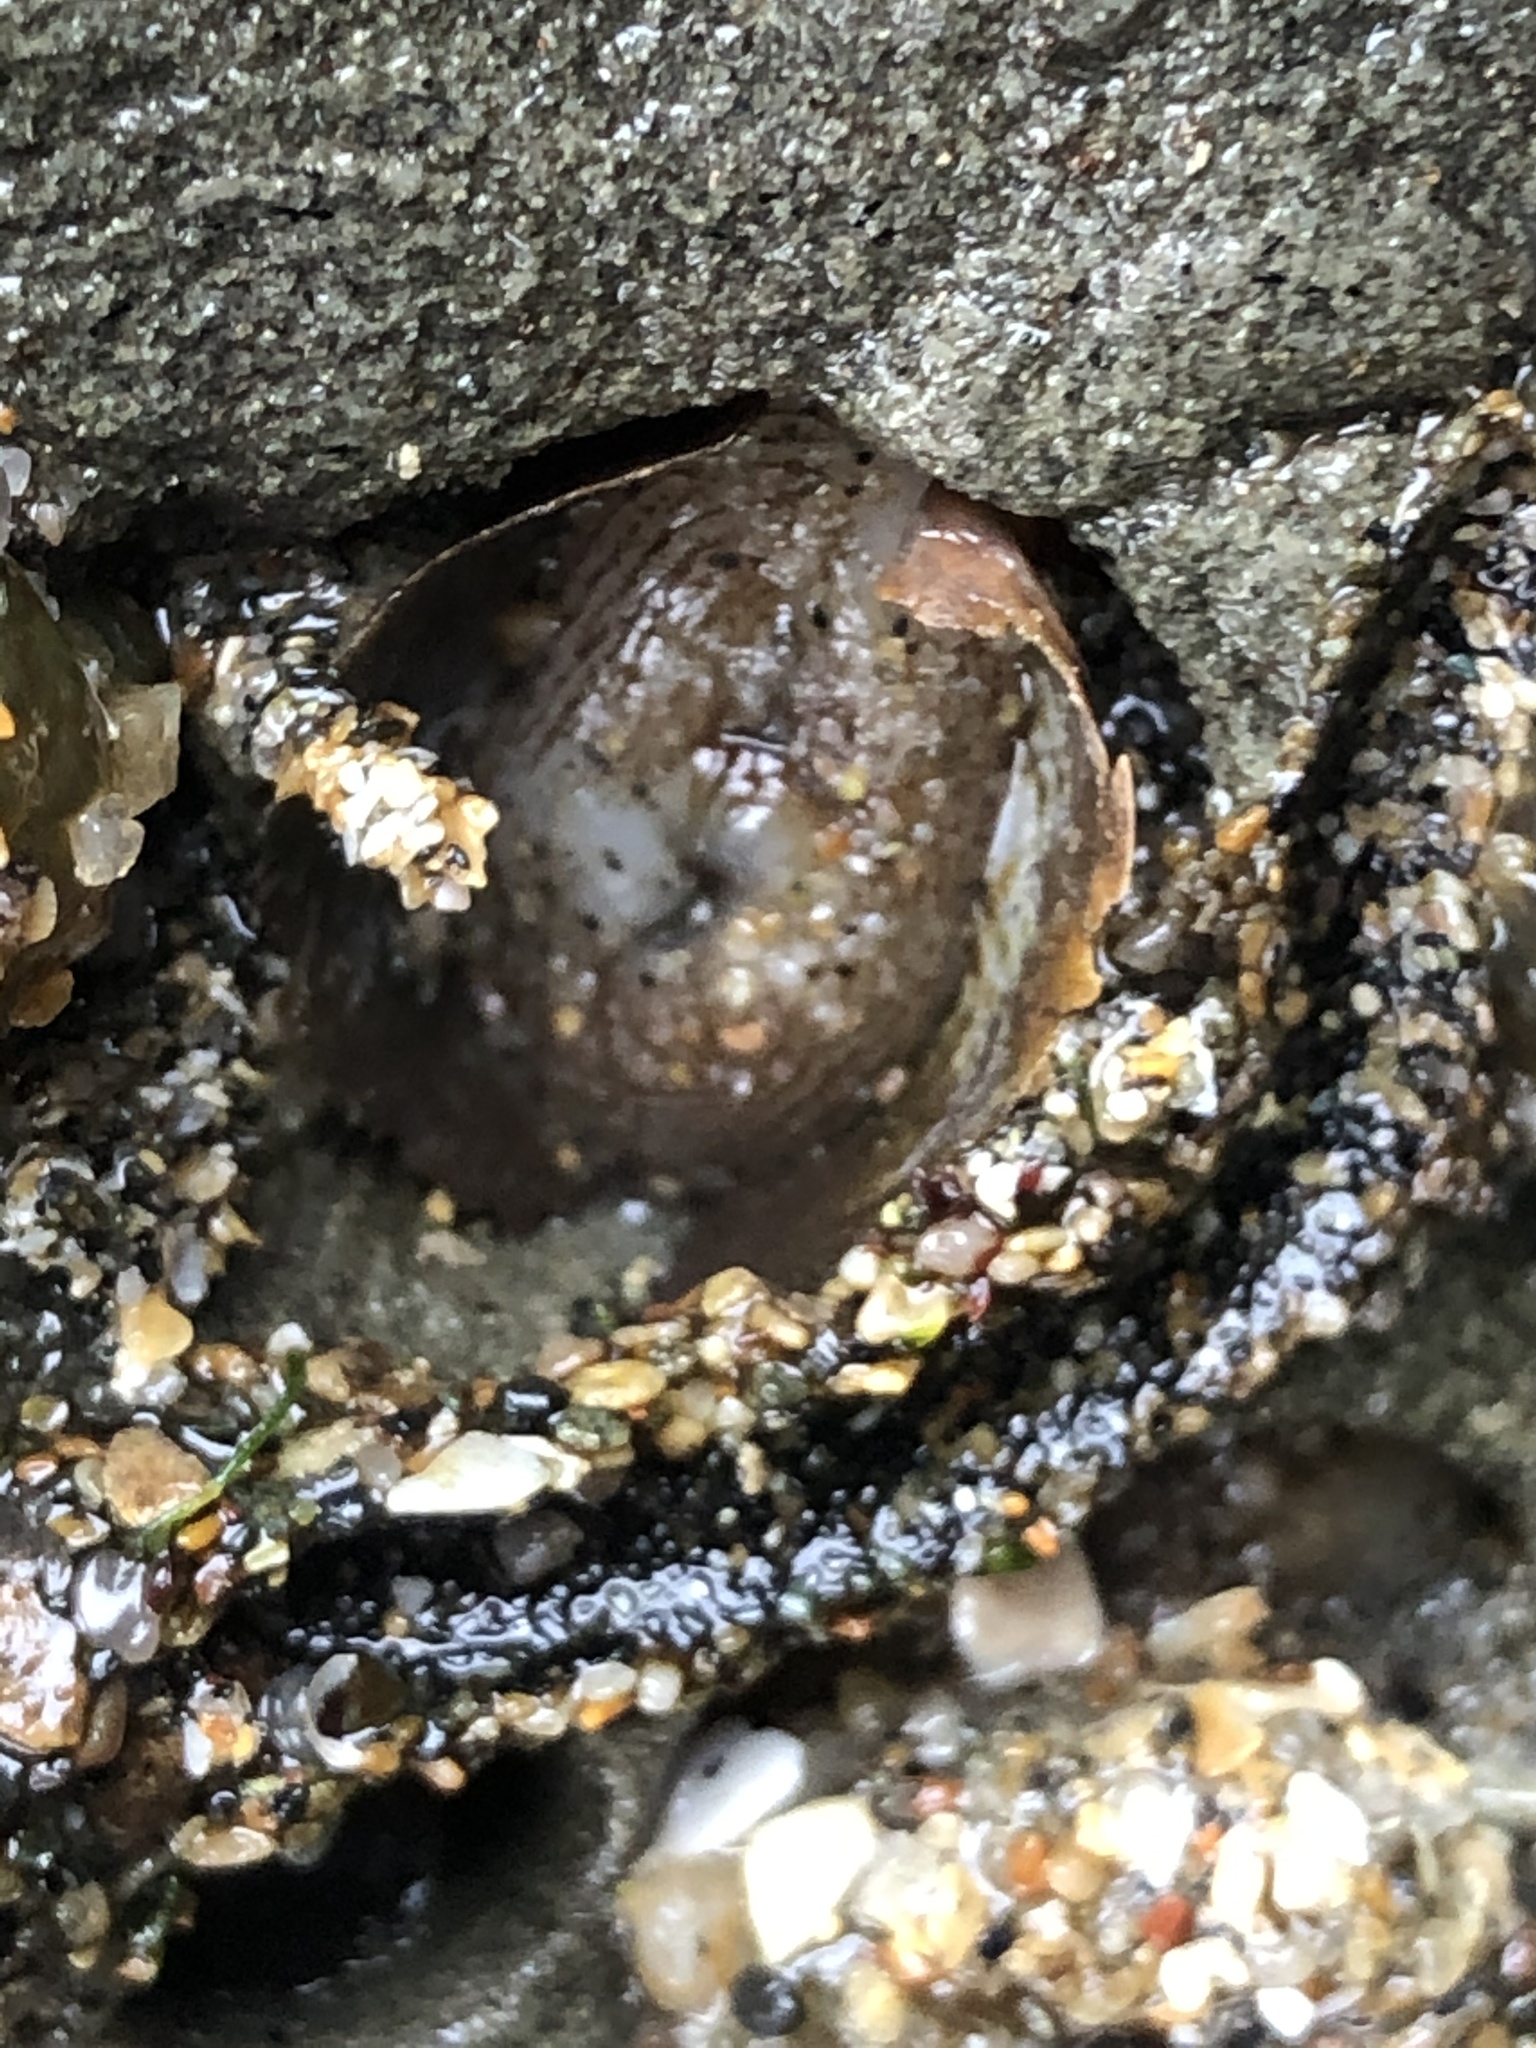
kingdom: Animalia
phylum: Mollusca
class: Bivalvia
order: Myida
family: Pholadidae
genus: Penitella
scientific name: Penitella penita
